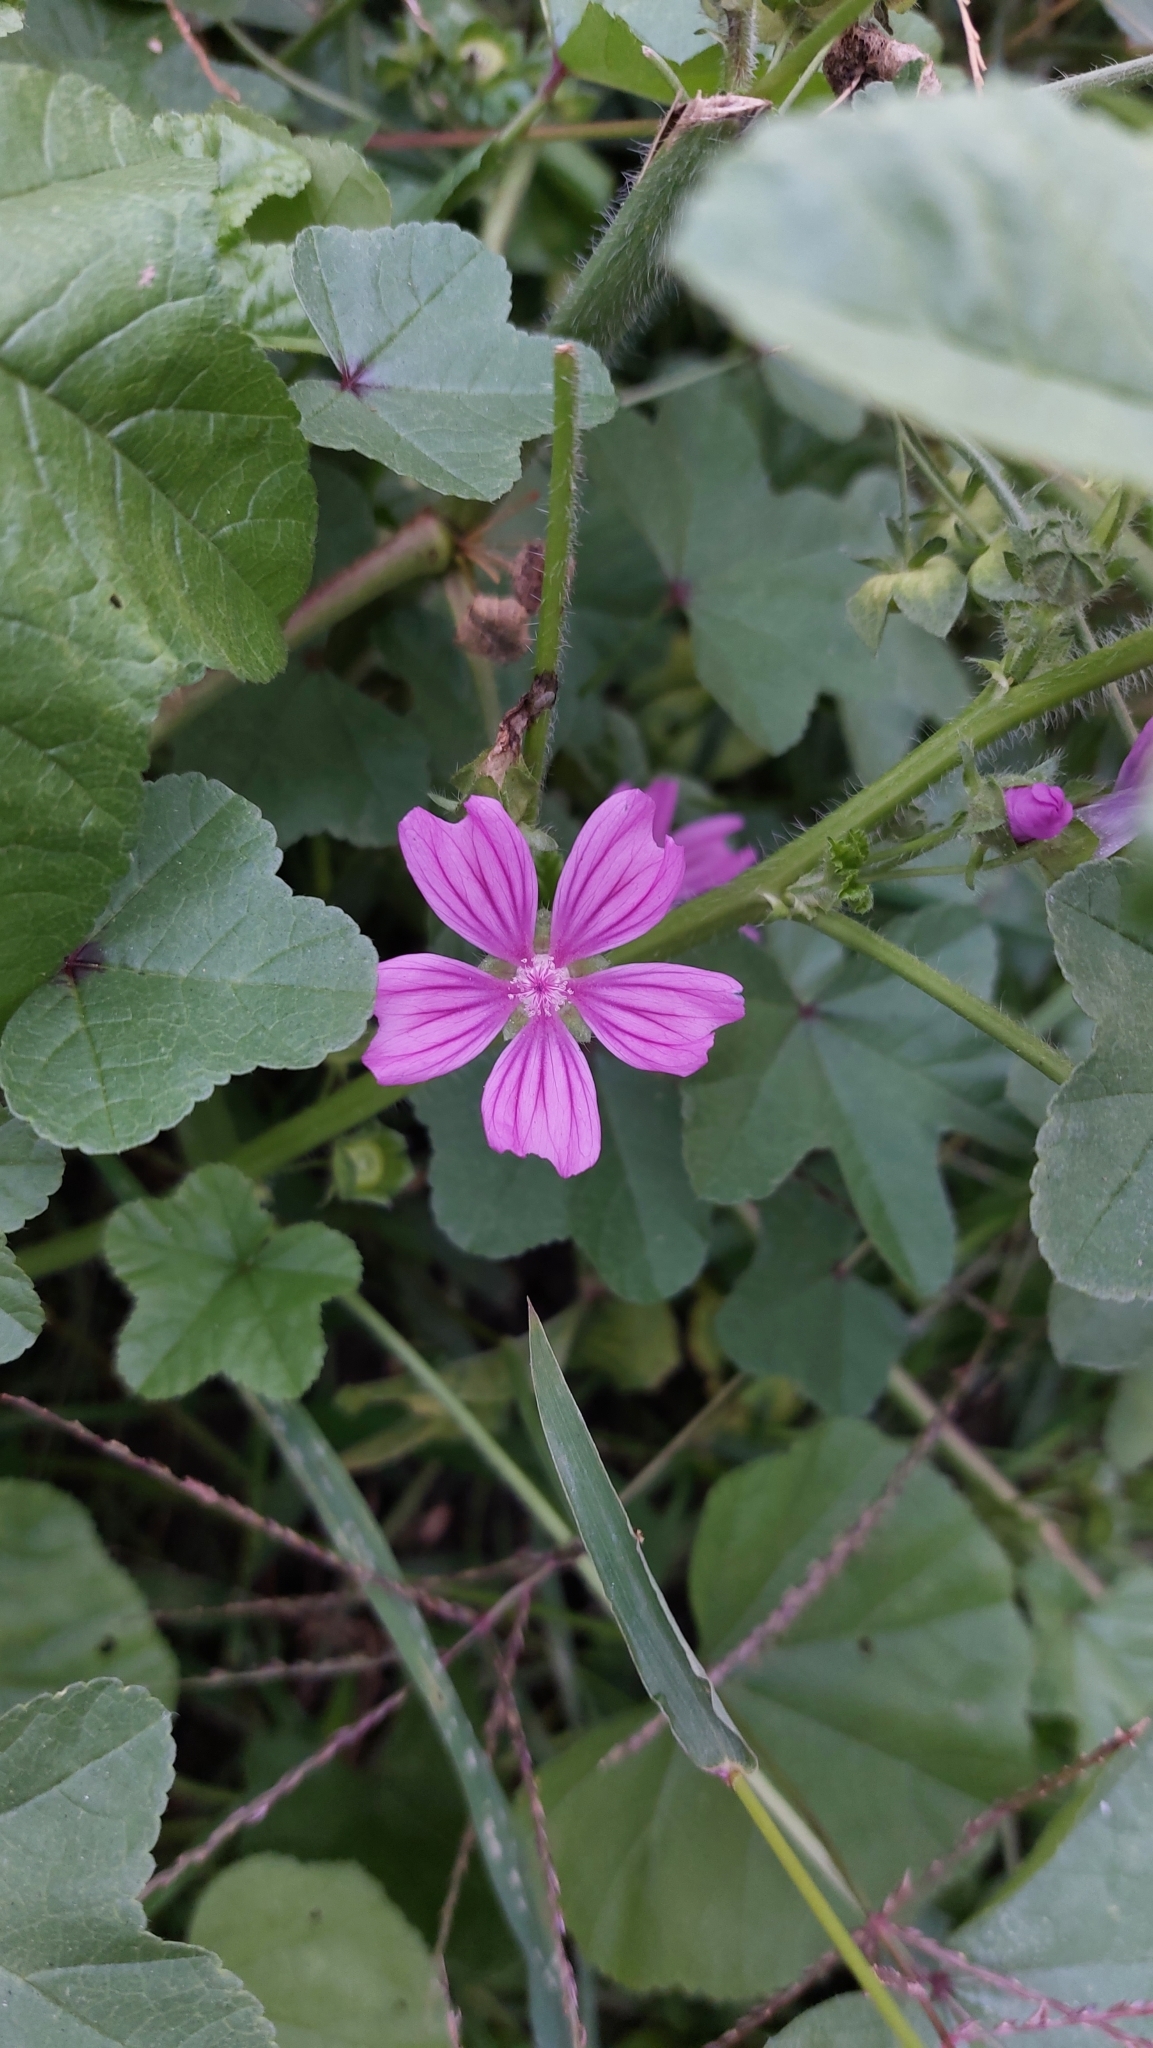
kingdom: Plantae
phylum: Tracheophyta
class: Magnoliopsida
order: Malvales
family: Malvaceae
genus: Malva
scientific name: Malva sylvestris
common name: Common mallow
